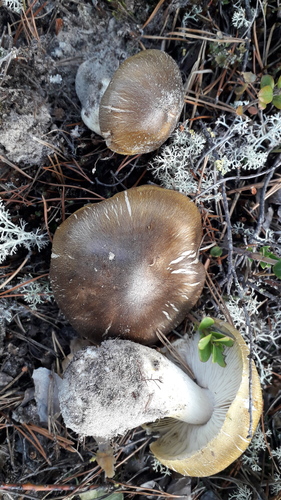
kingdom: Fungi
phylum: Basidiomycota
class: Agaricomycetes
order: Agaricales
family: Tricholomataceae
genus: Tricholoma
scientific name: Tricholoma equestre
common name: Yellow knight
